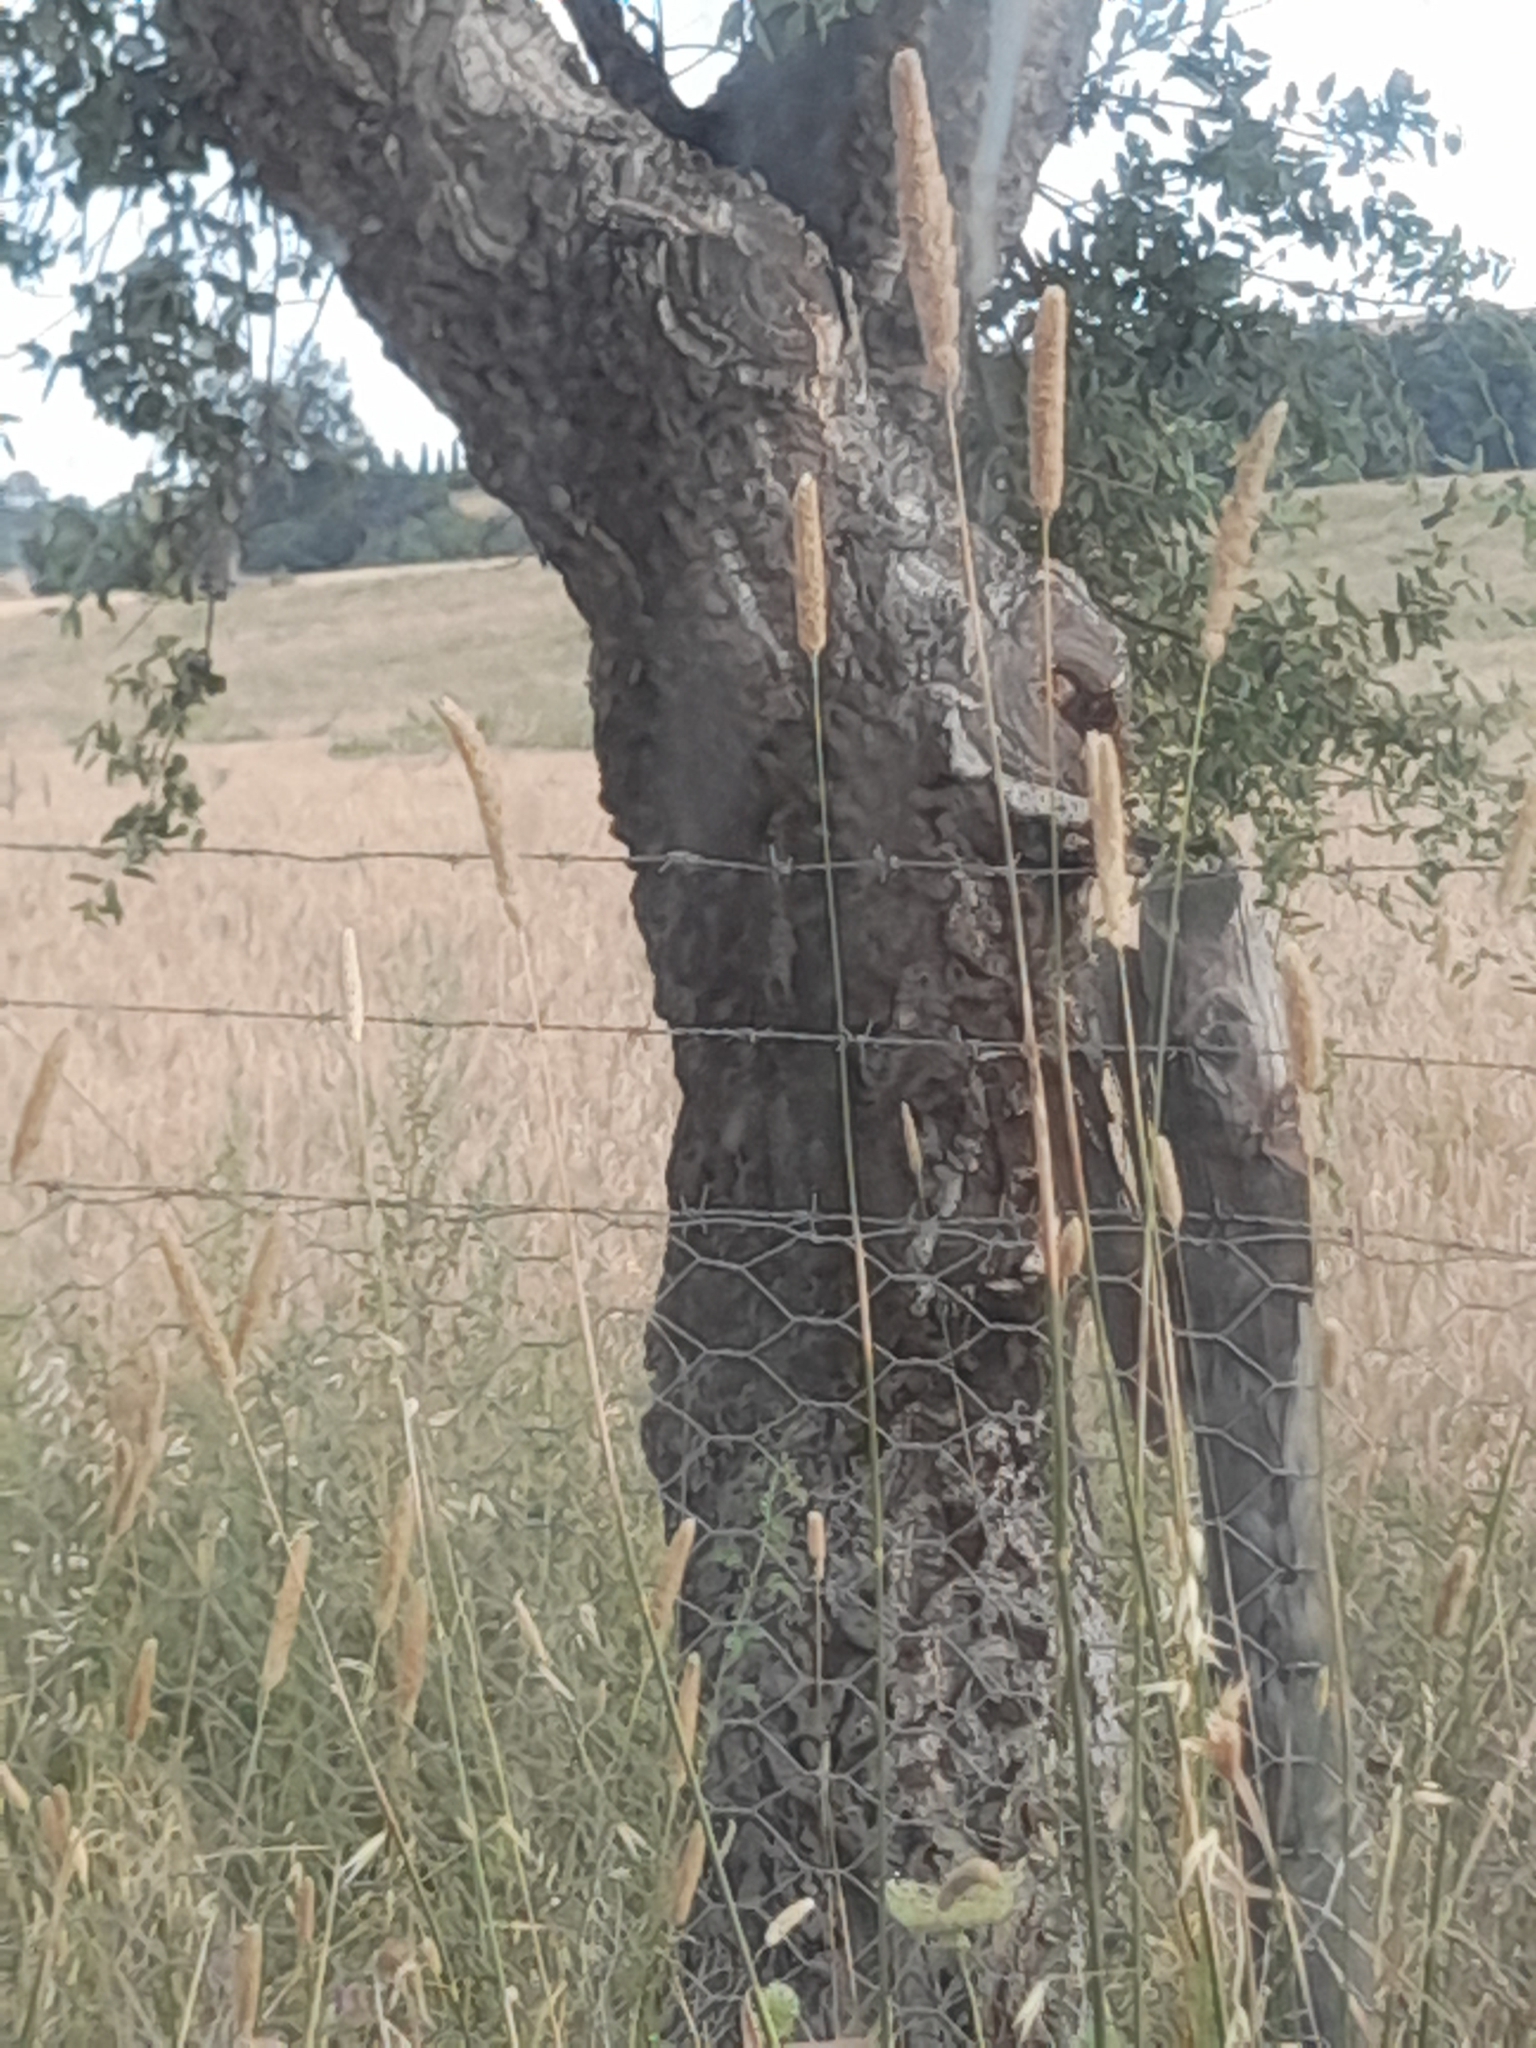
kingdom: Plantae
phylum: Tracheophyta
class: Magnoliopsida
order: Fagales
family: Fagaceae
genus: Quercus
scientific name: Quercus suber
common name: Cork oak
